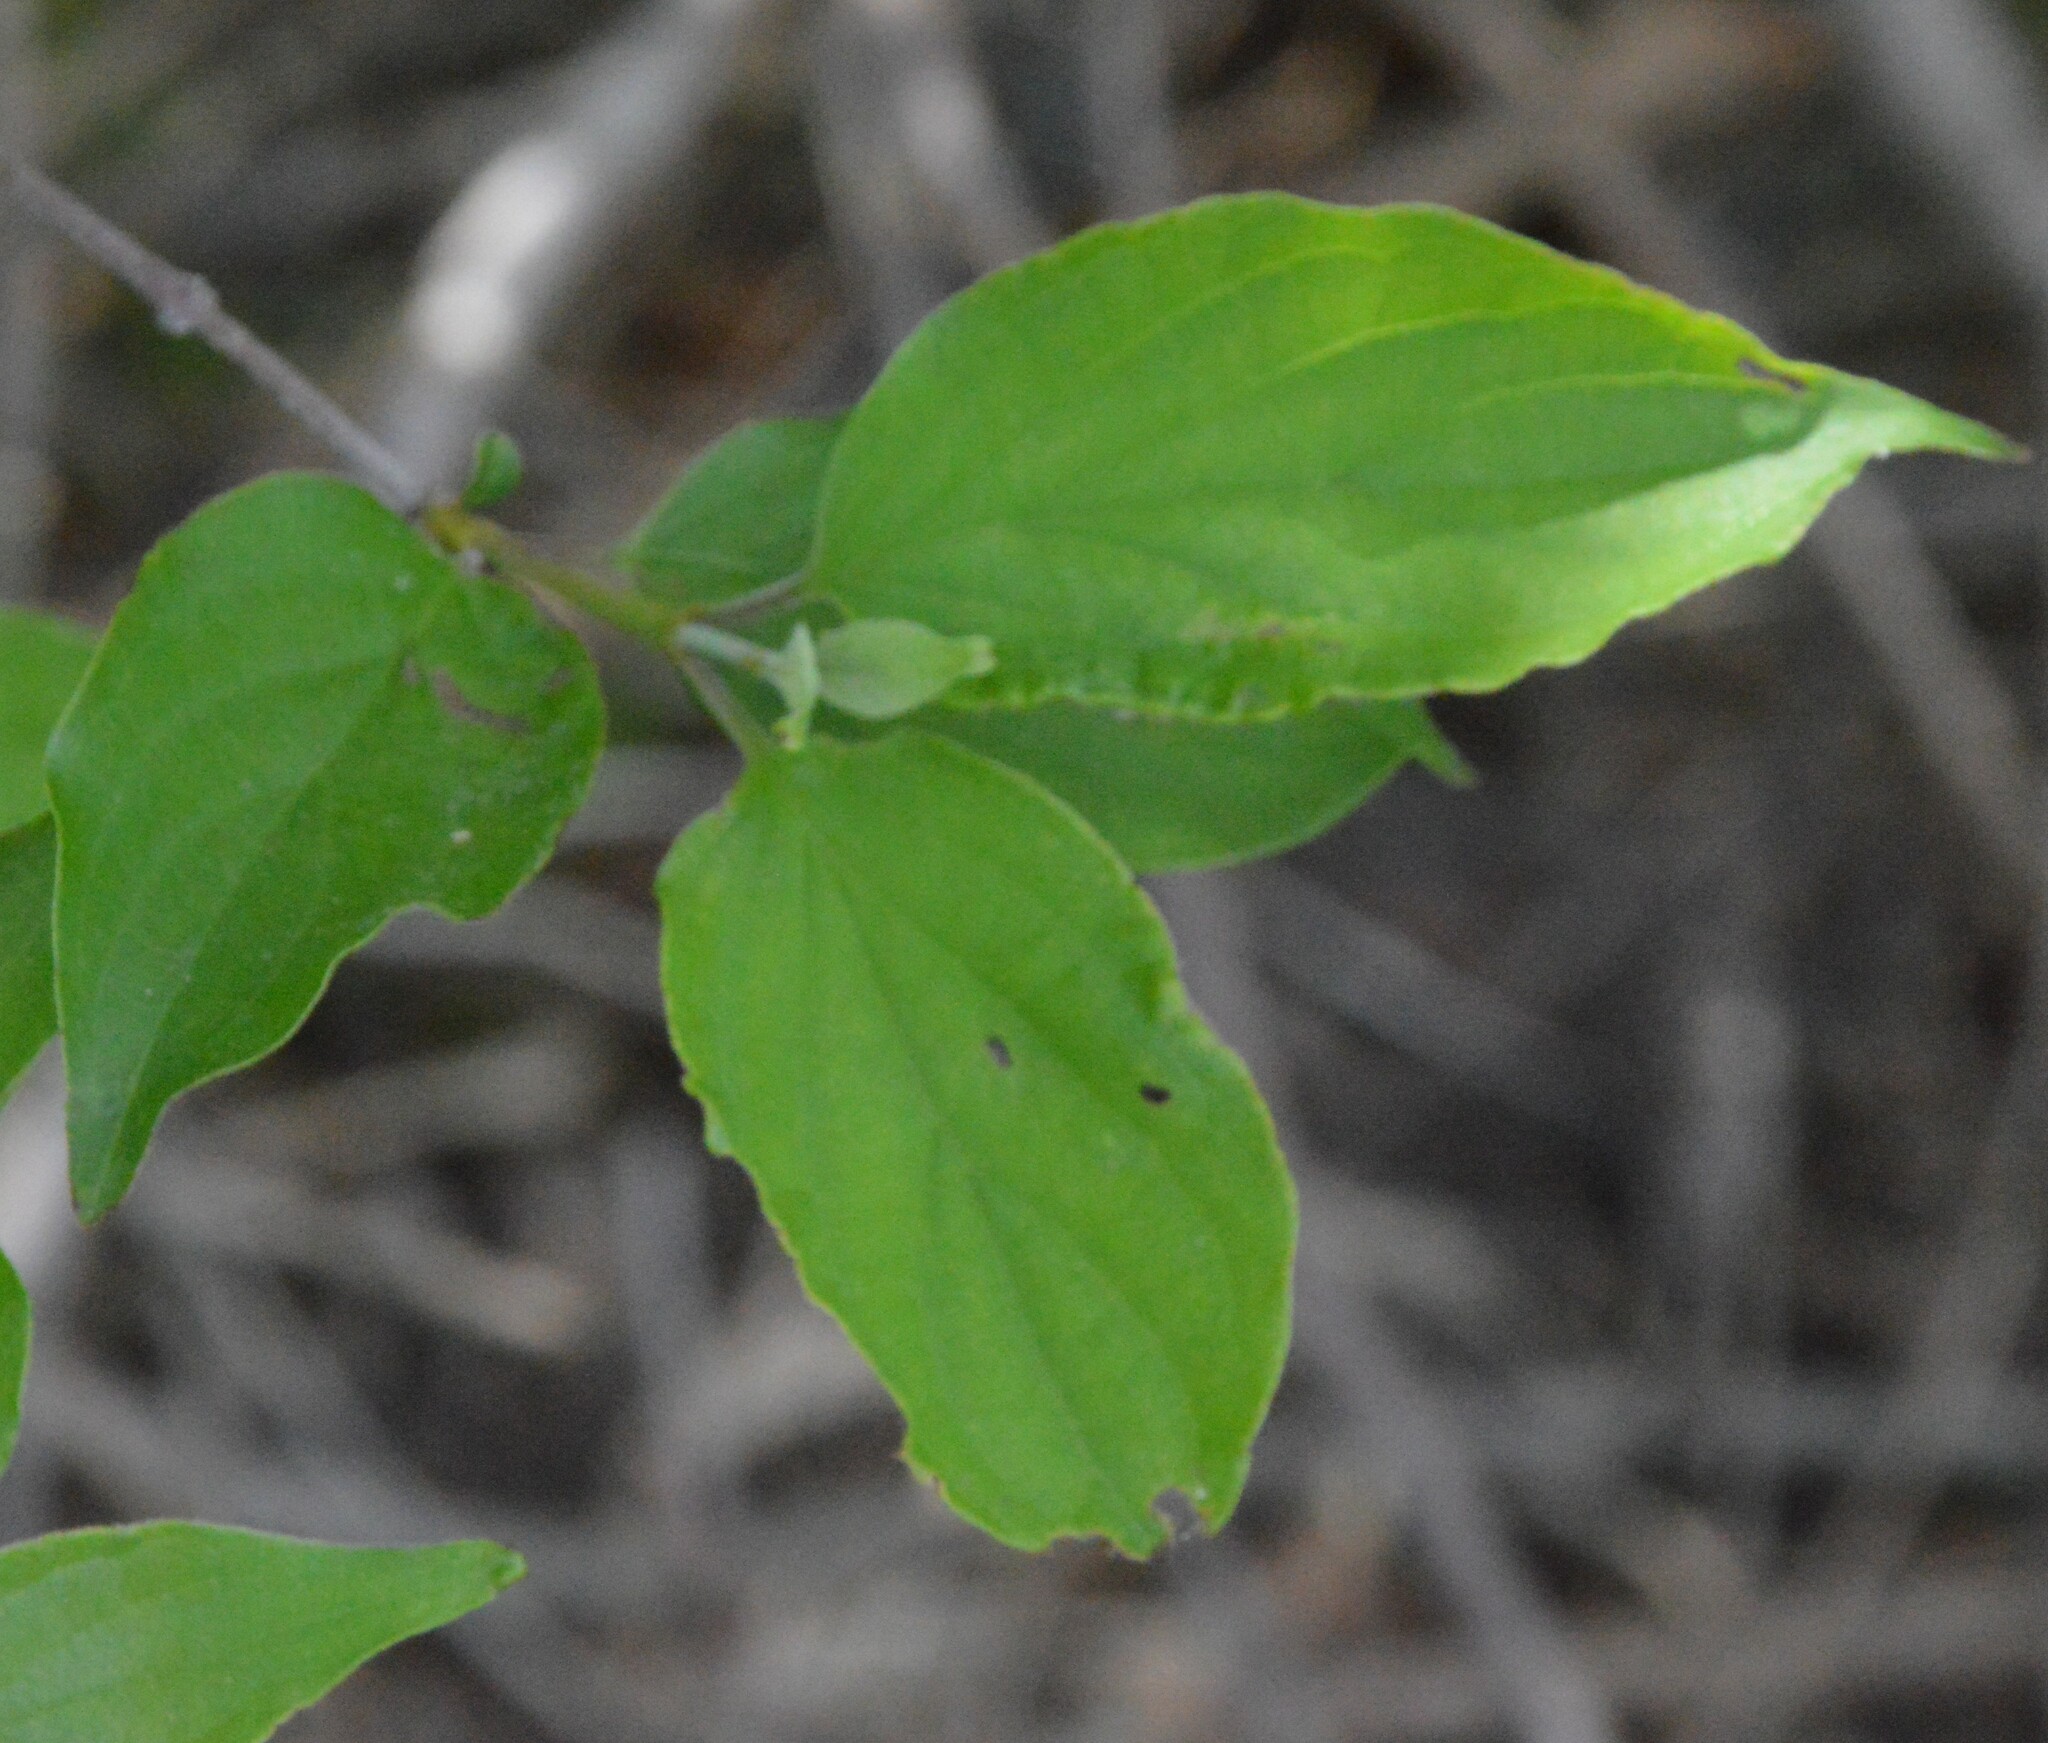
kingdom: Plantae
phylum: Tracheophyta
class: Magnoliopsida
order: Cornales
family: Cornaceae
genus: Cornus
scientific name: Cornus drummondii
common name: Rough-leaf dogwood
